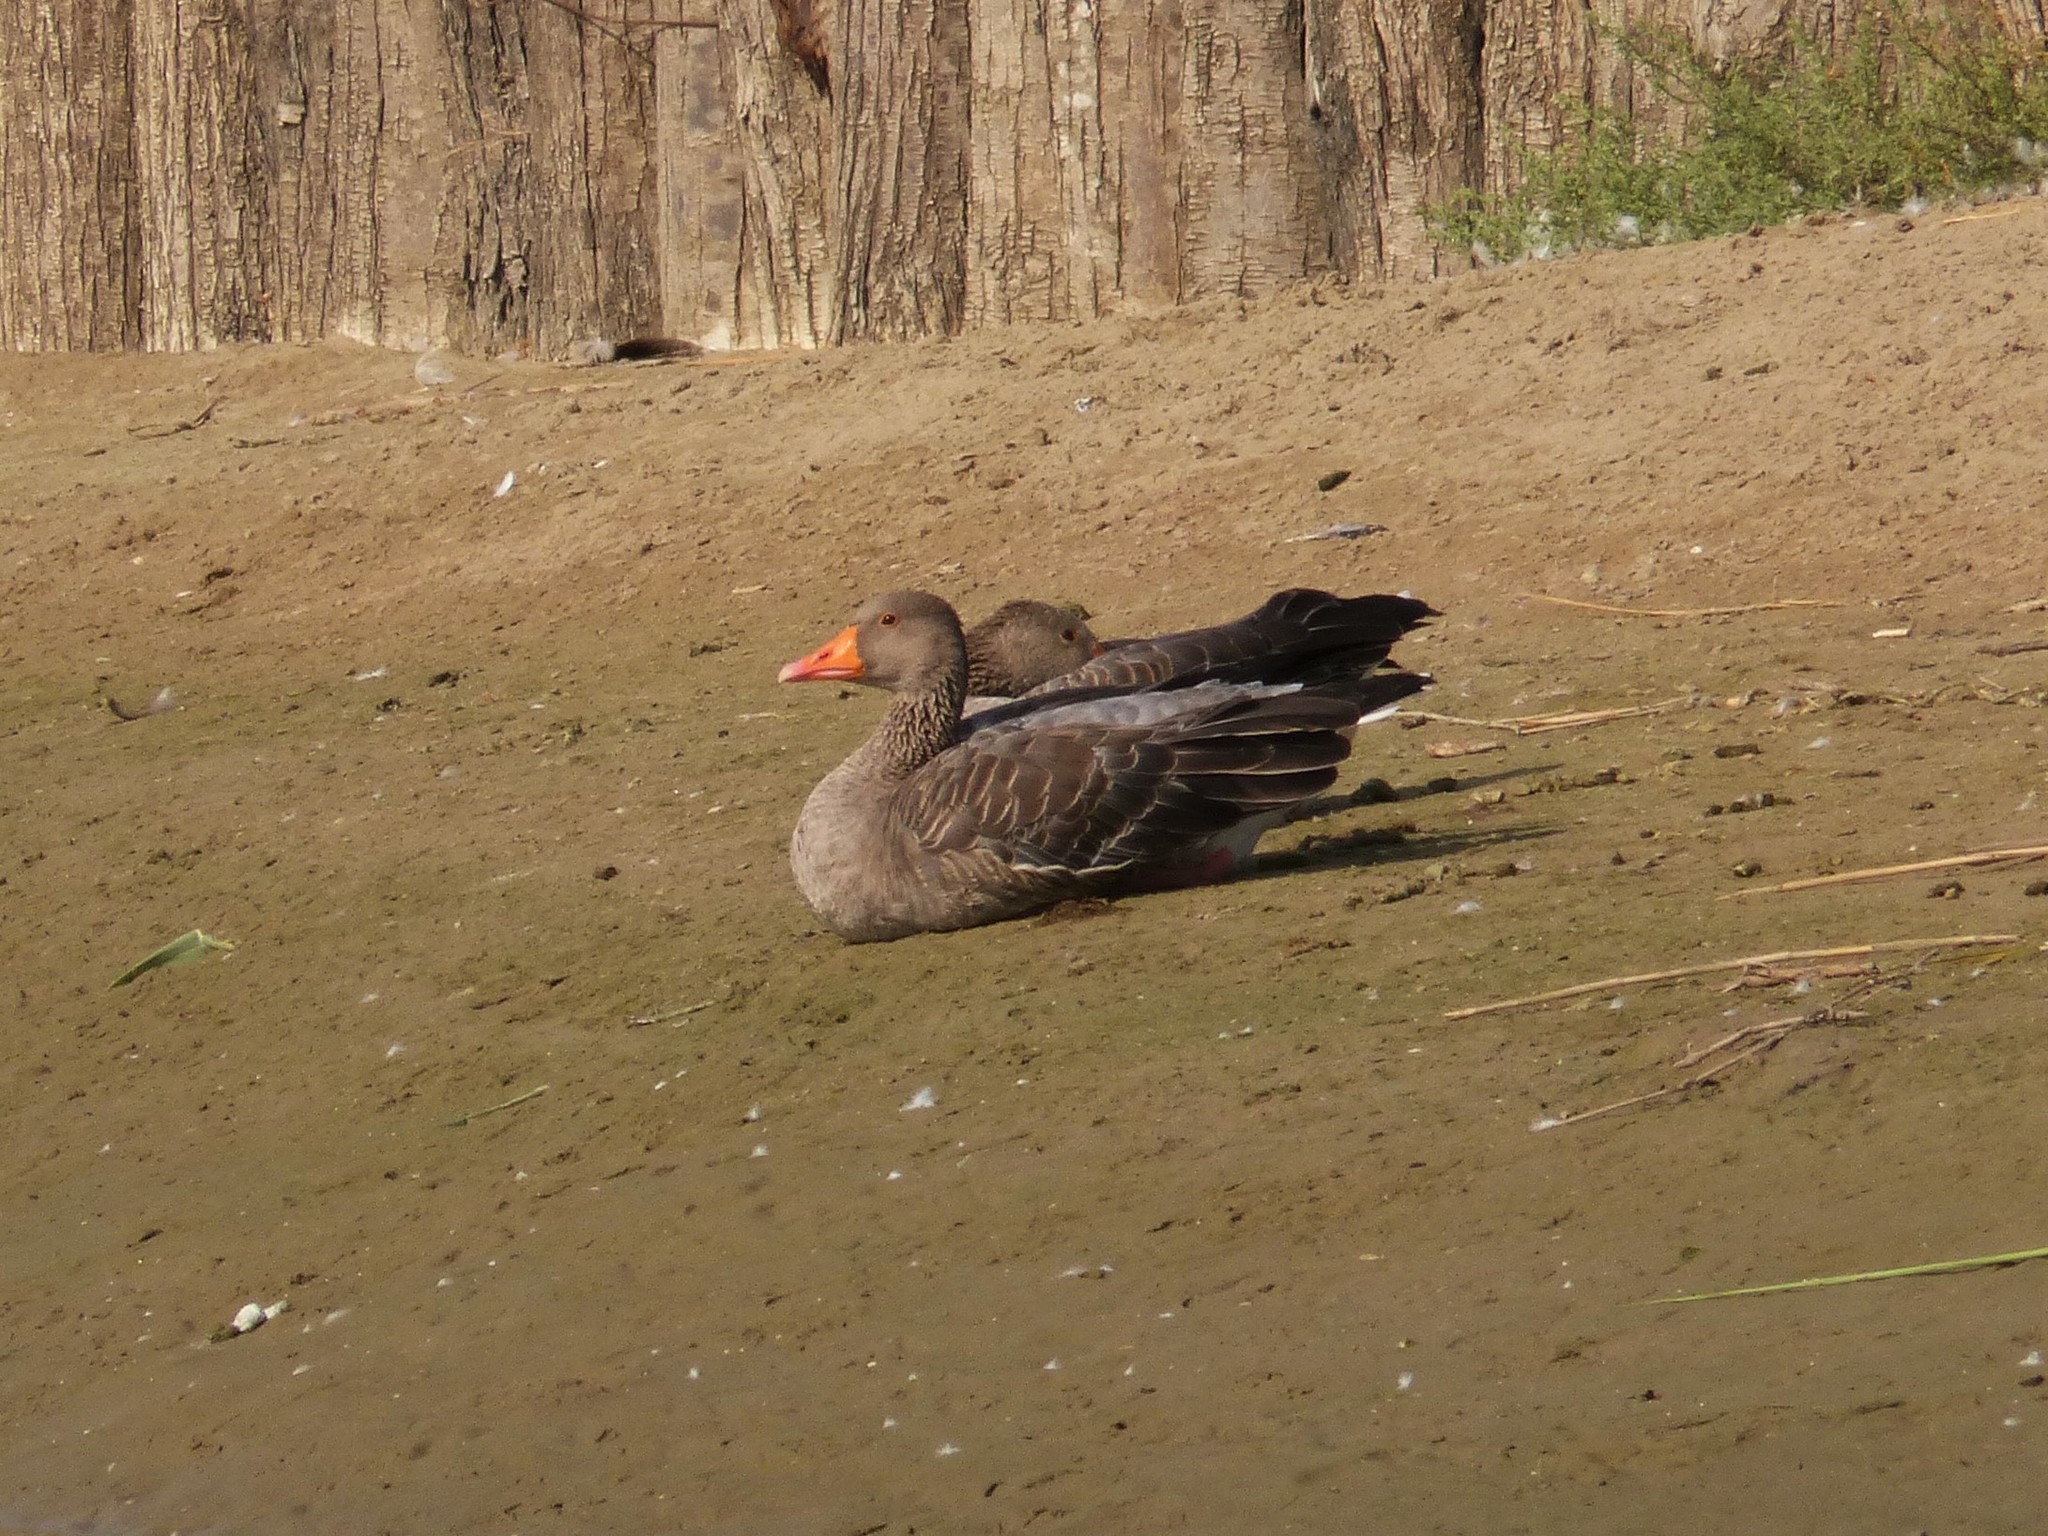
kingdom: Animalia
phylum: Chordata
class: Aves
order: Anseriformes
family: Anatidae
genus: Anser
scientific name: Anser anser
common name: Greylag goose
